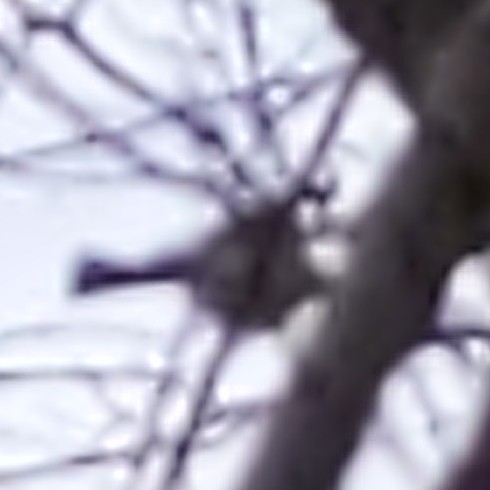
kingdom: Animalia
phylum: Chordata
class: Aves
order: Passeriformes
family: Paridae
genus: Baeolophus
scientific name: Baeolophus bicolor
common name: Tufted titmouse
